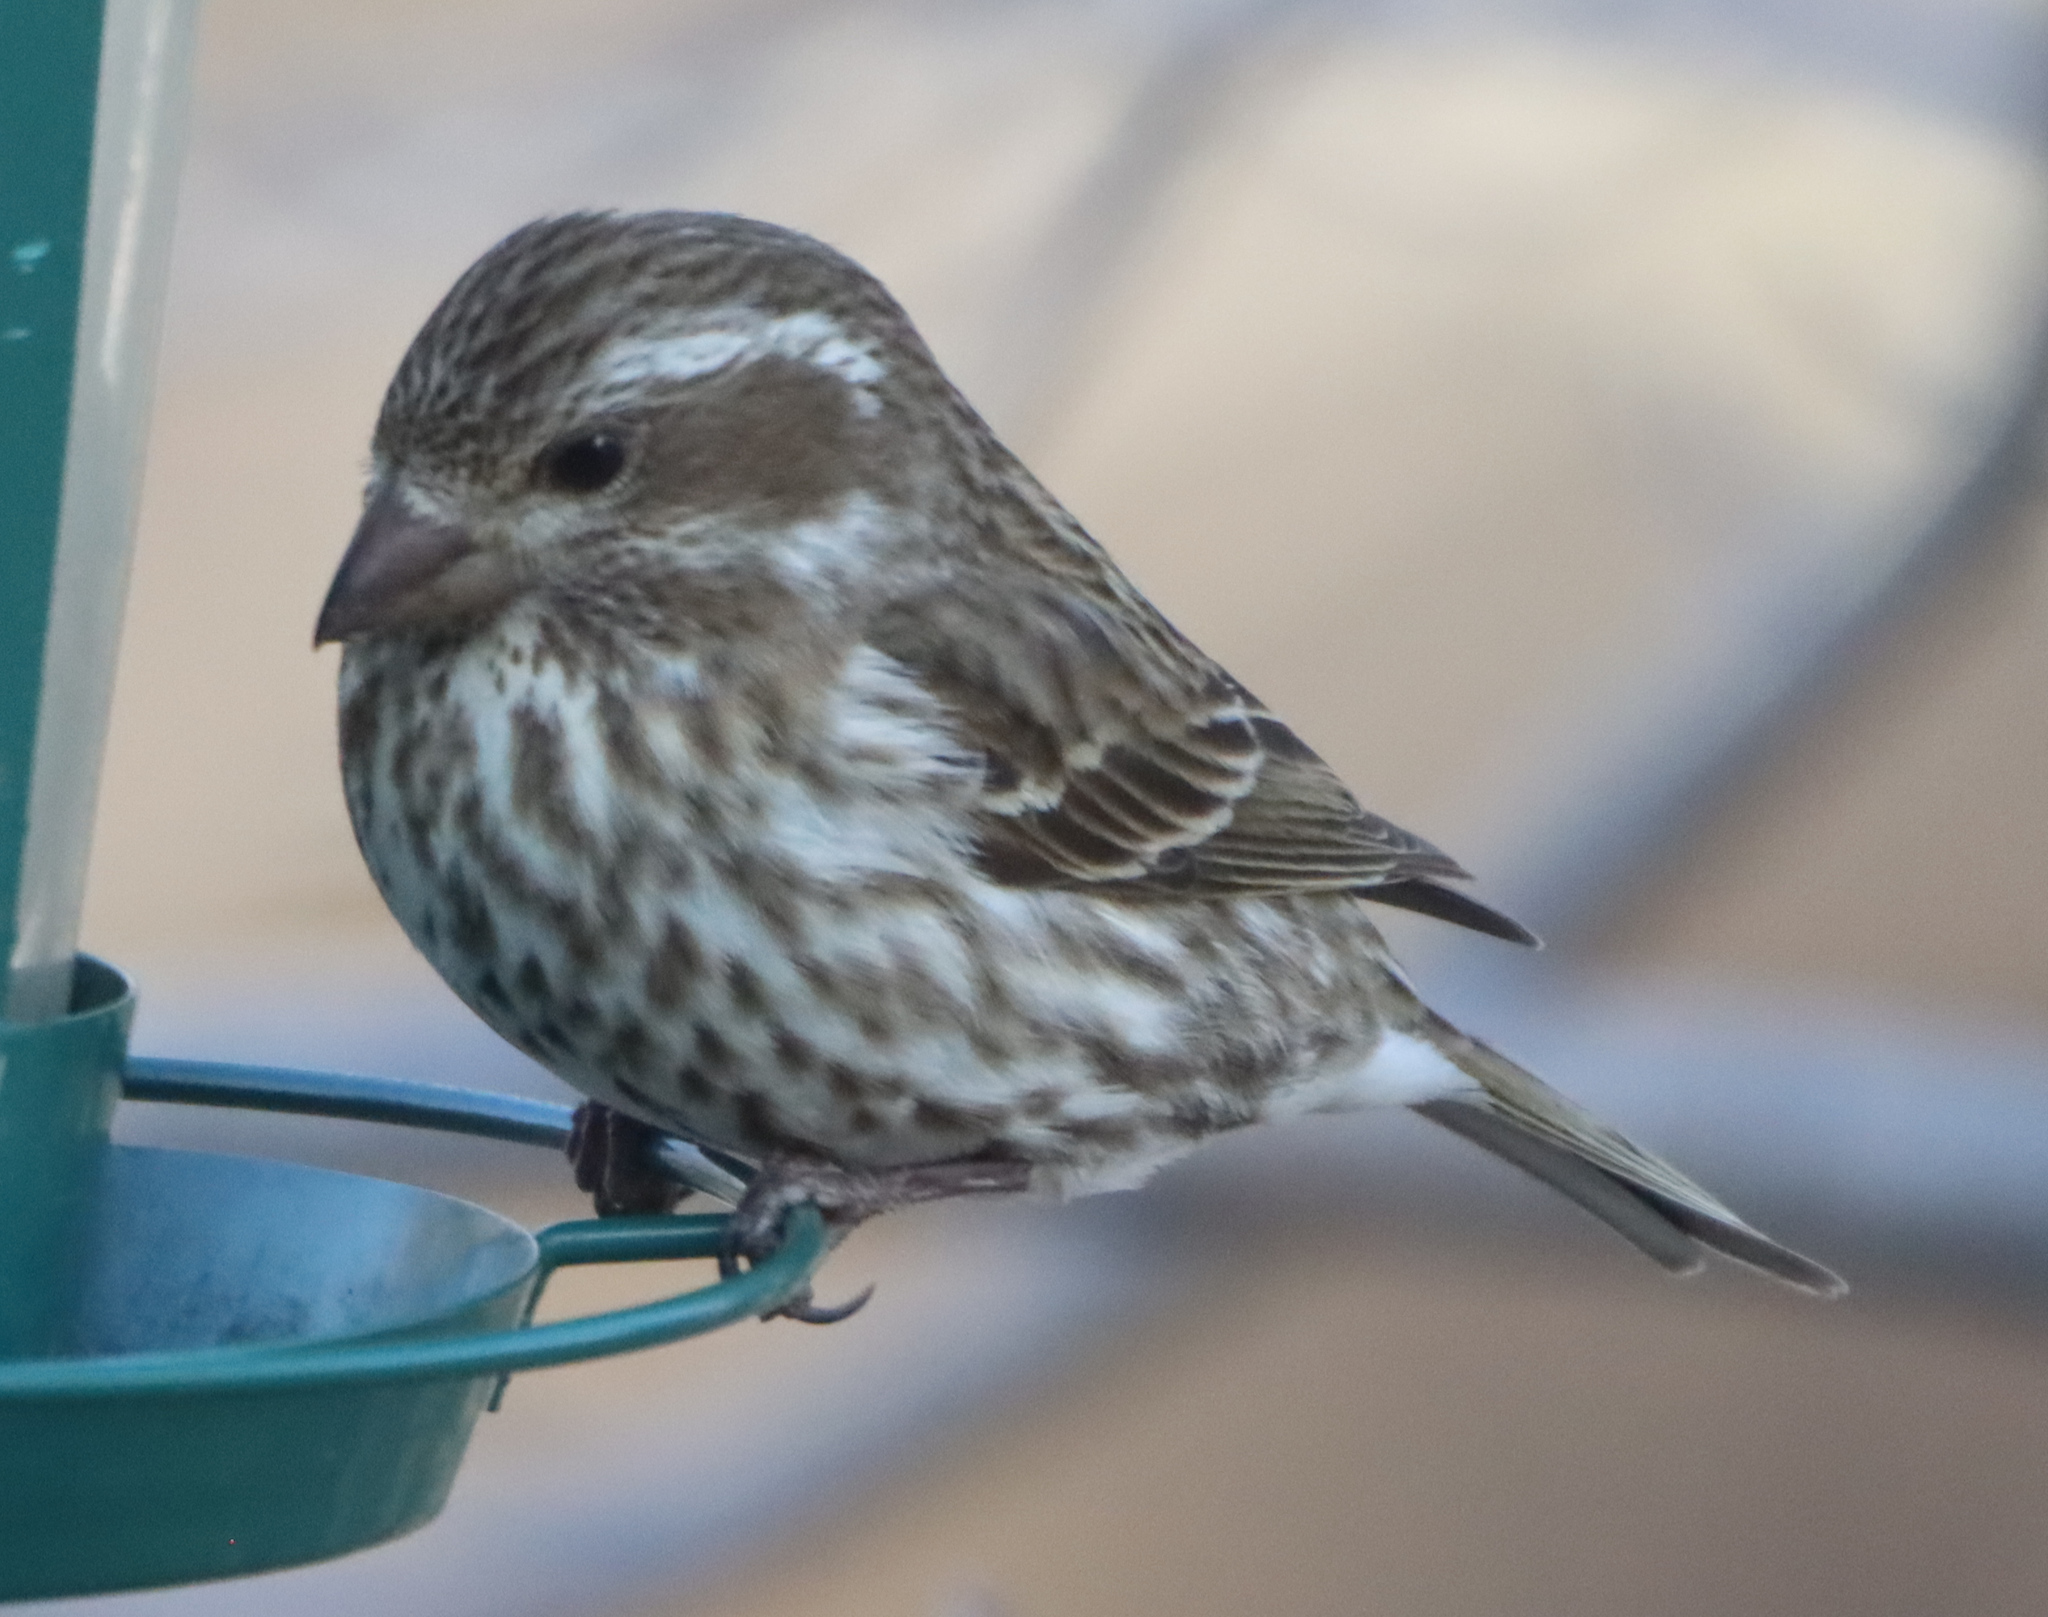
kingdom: Animalia
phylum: Chordata
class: Aves
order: Passeriformes
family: Fringillidae
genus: Haemorhous
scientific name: Haemorhous purpureus
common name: Purple finch
